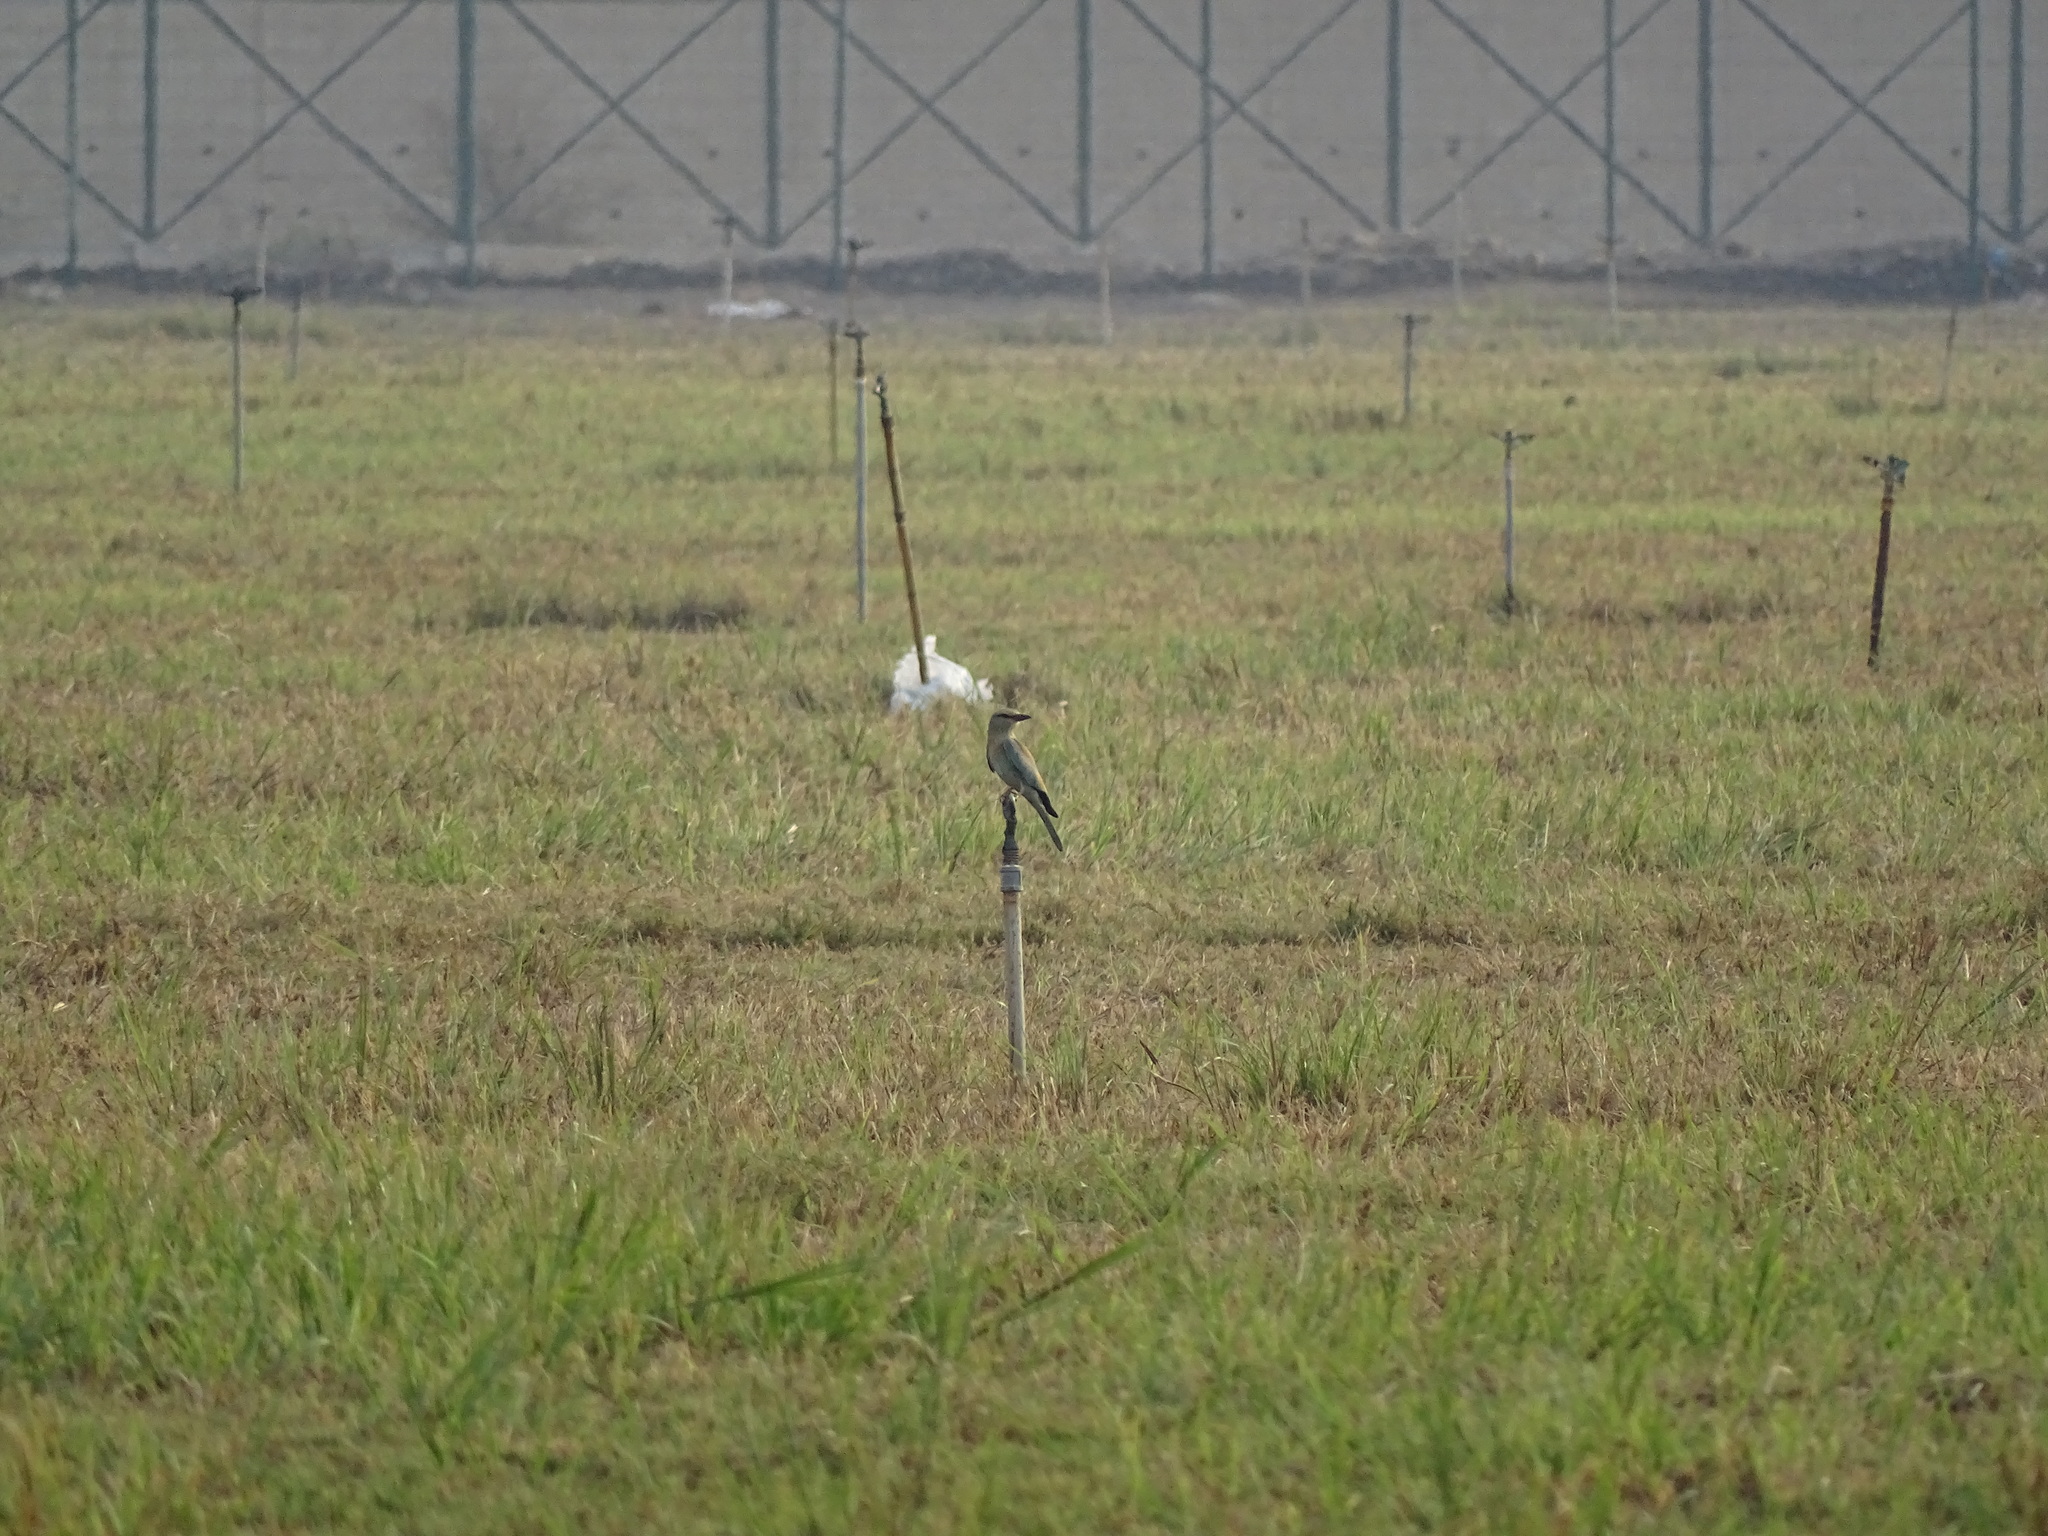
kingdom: Animalia
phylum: Chordata
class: Aves
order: Coraciiformes
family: Coraciidae
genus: Coracias
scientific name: Coracias garrulus
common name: European roller
